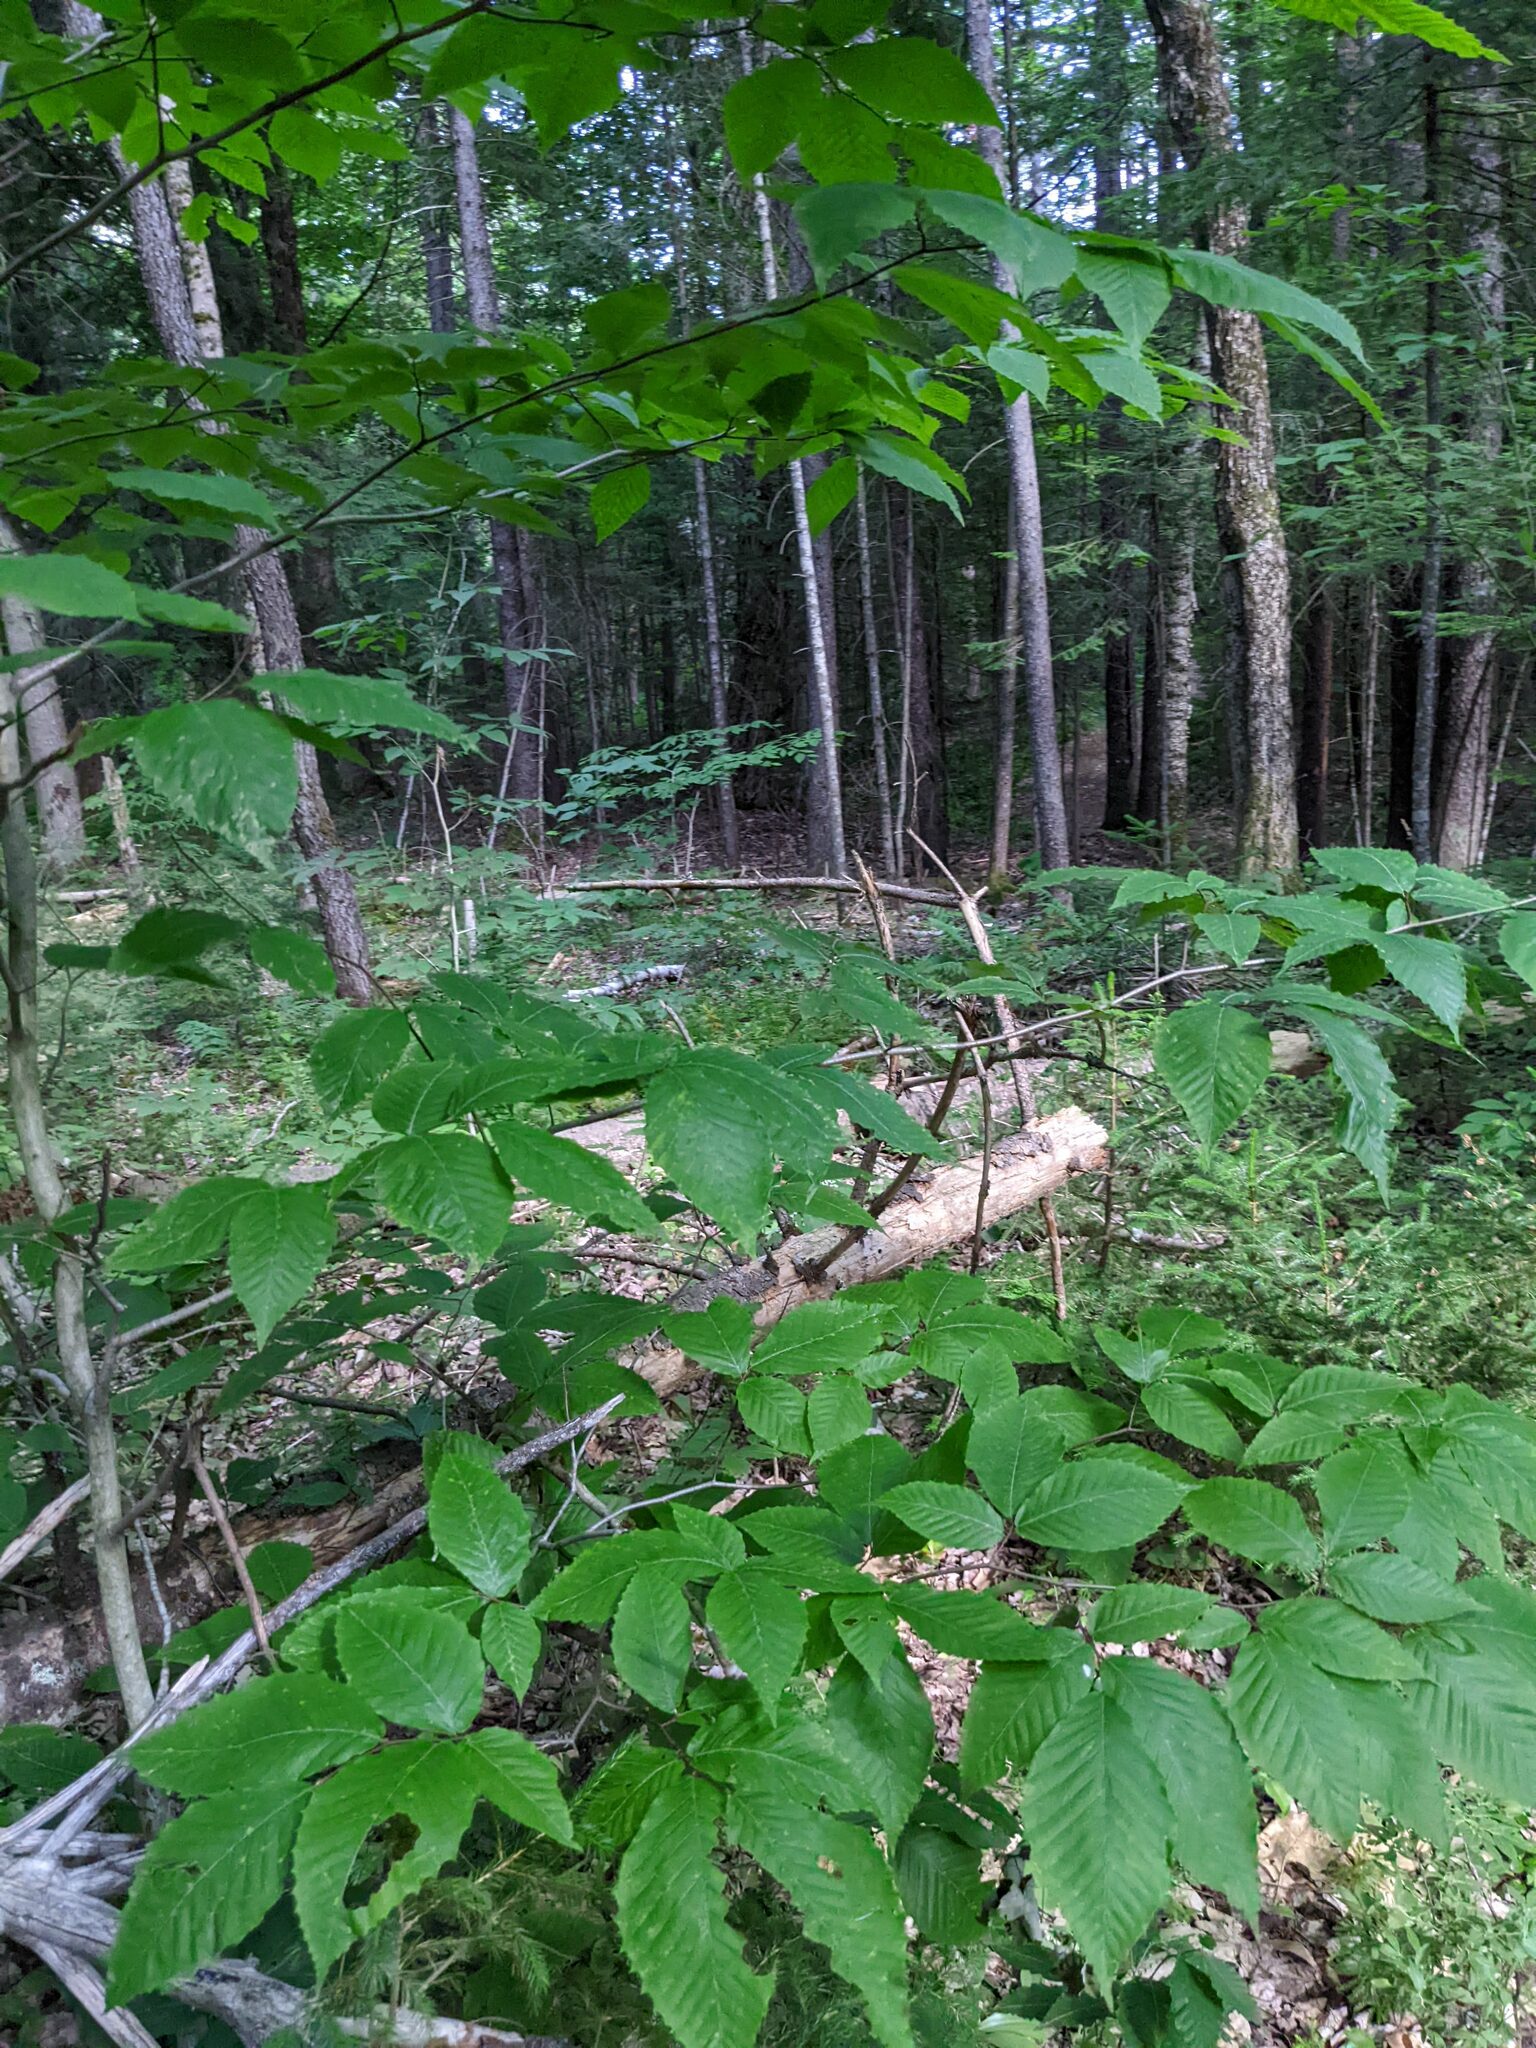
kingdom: Plantae
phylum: Tracheophyta
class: Magnoliopsida
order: Fagales
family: Fagaceae
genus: Fagus
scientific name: Fagus grandifolia
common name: American beech
